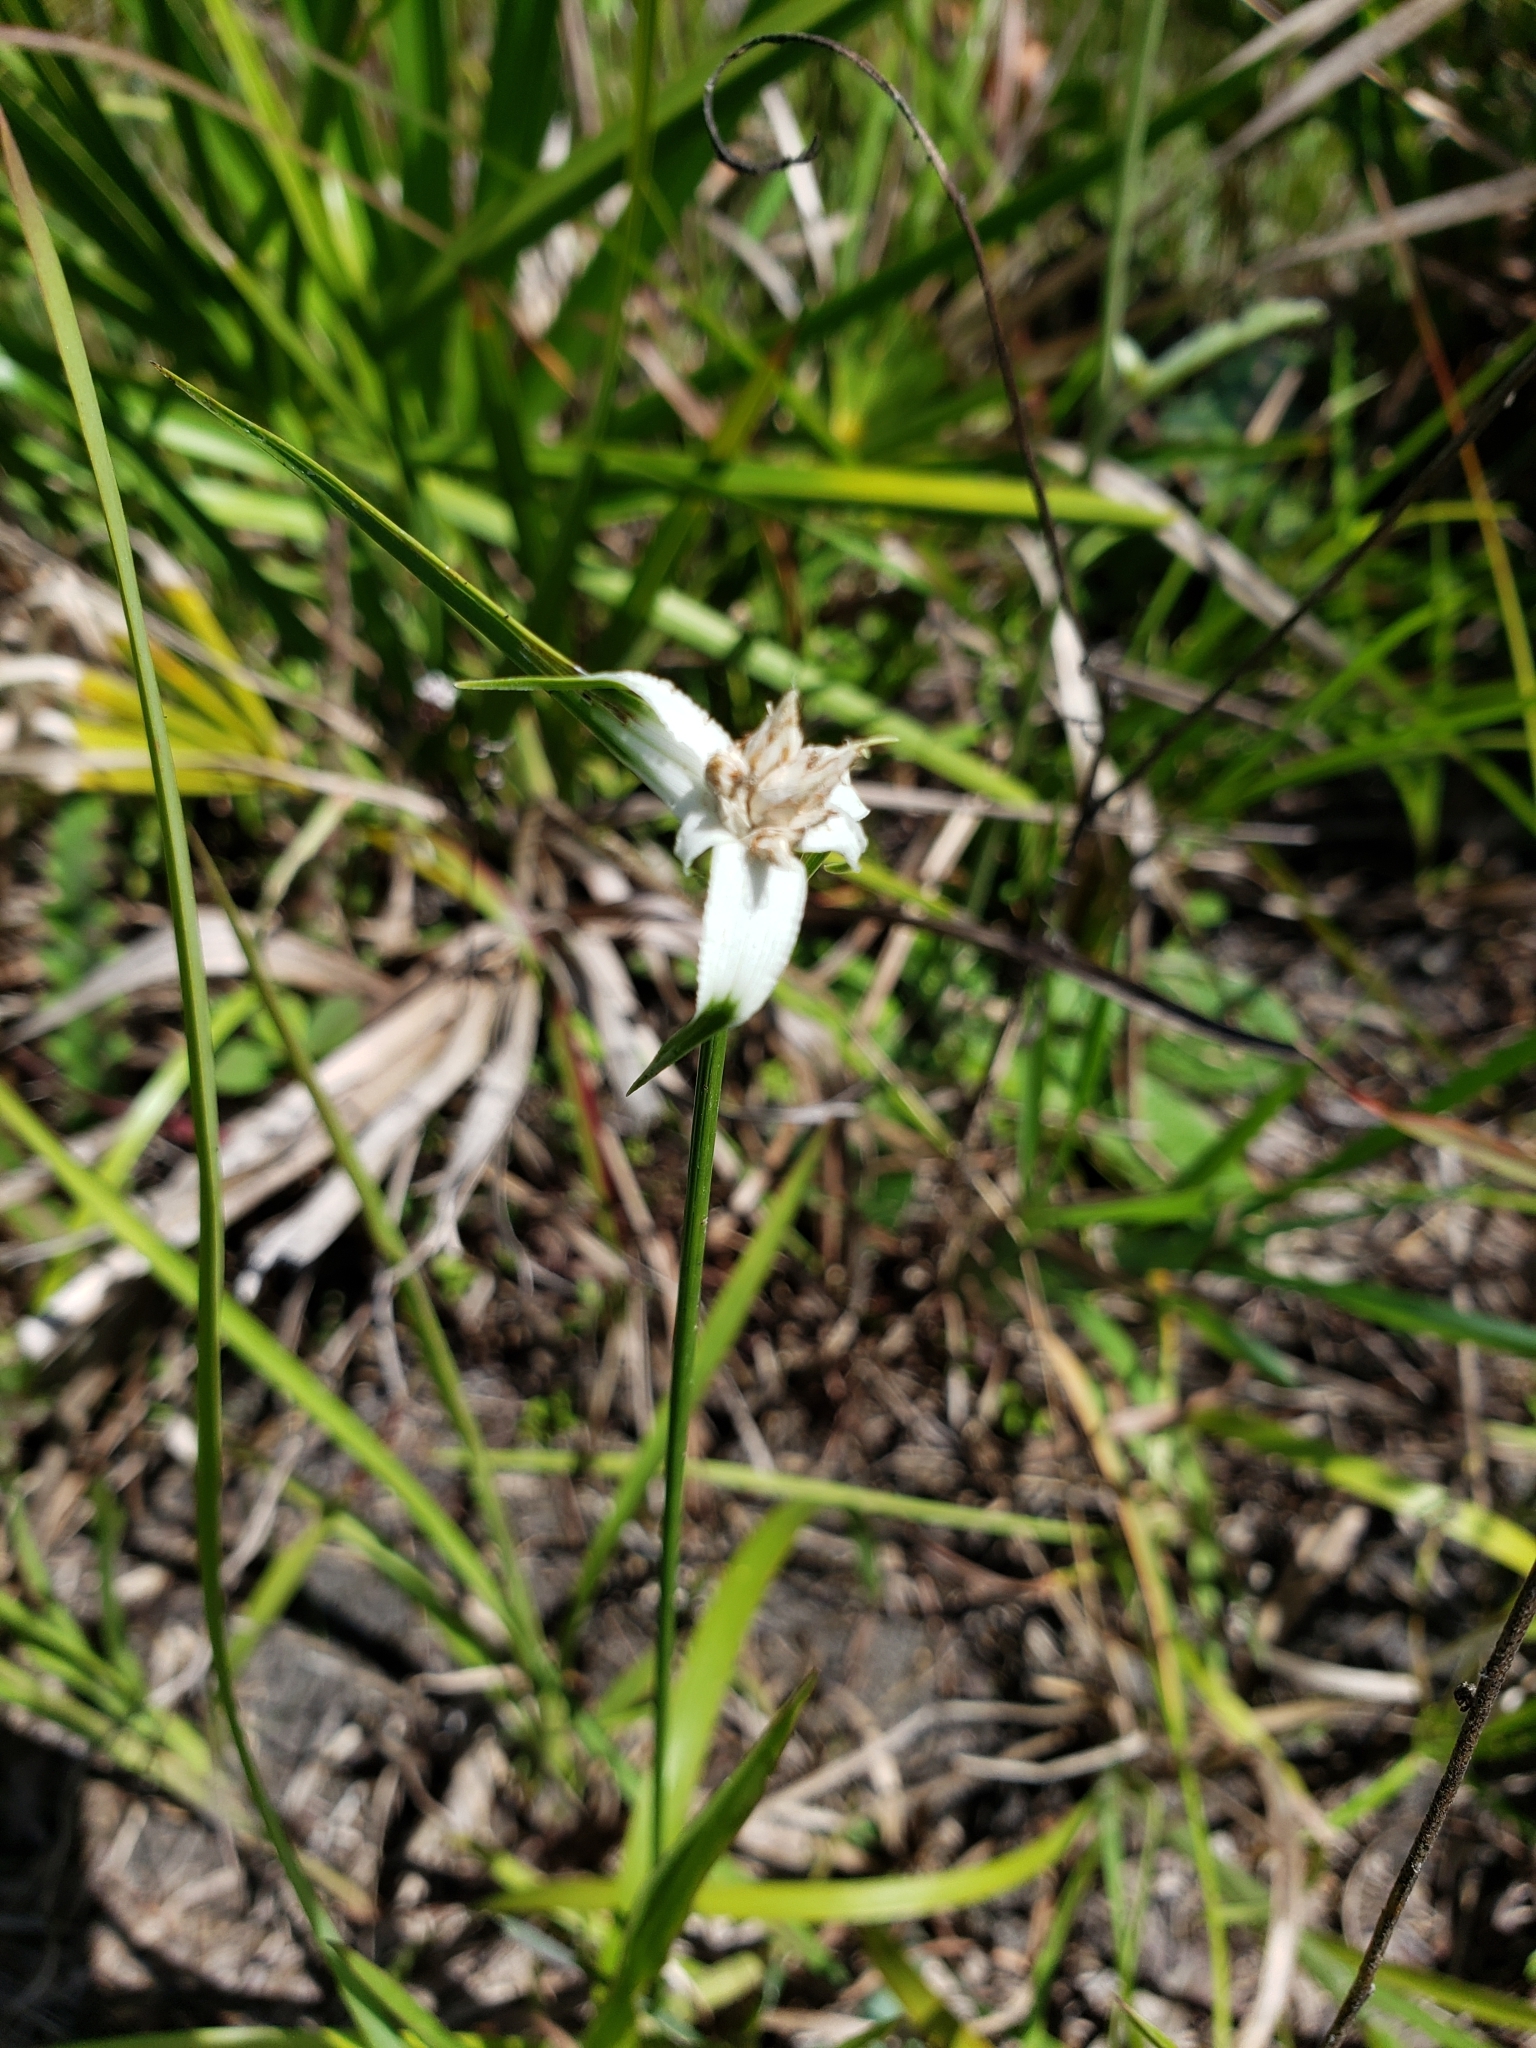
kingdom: Plantae
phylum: Tracheophyta
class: Liliopsida
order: Poales
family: Cyperaceae
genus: Rhynchospora
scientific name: Rhynchospora colorata
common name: Star sedge
